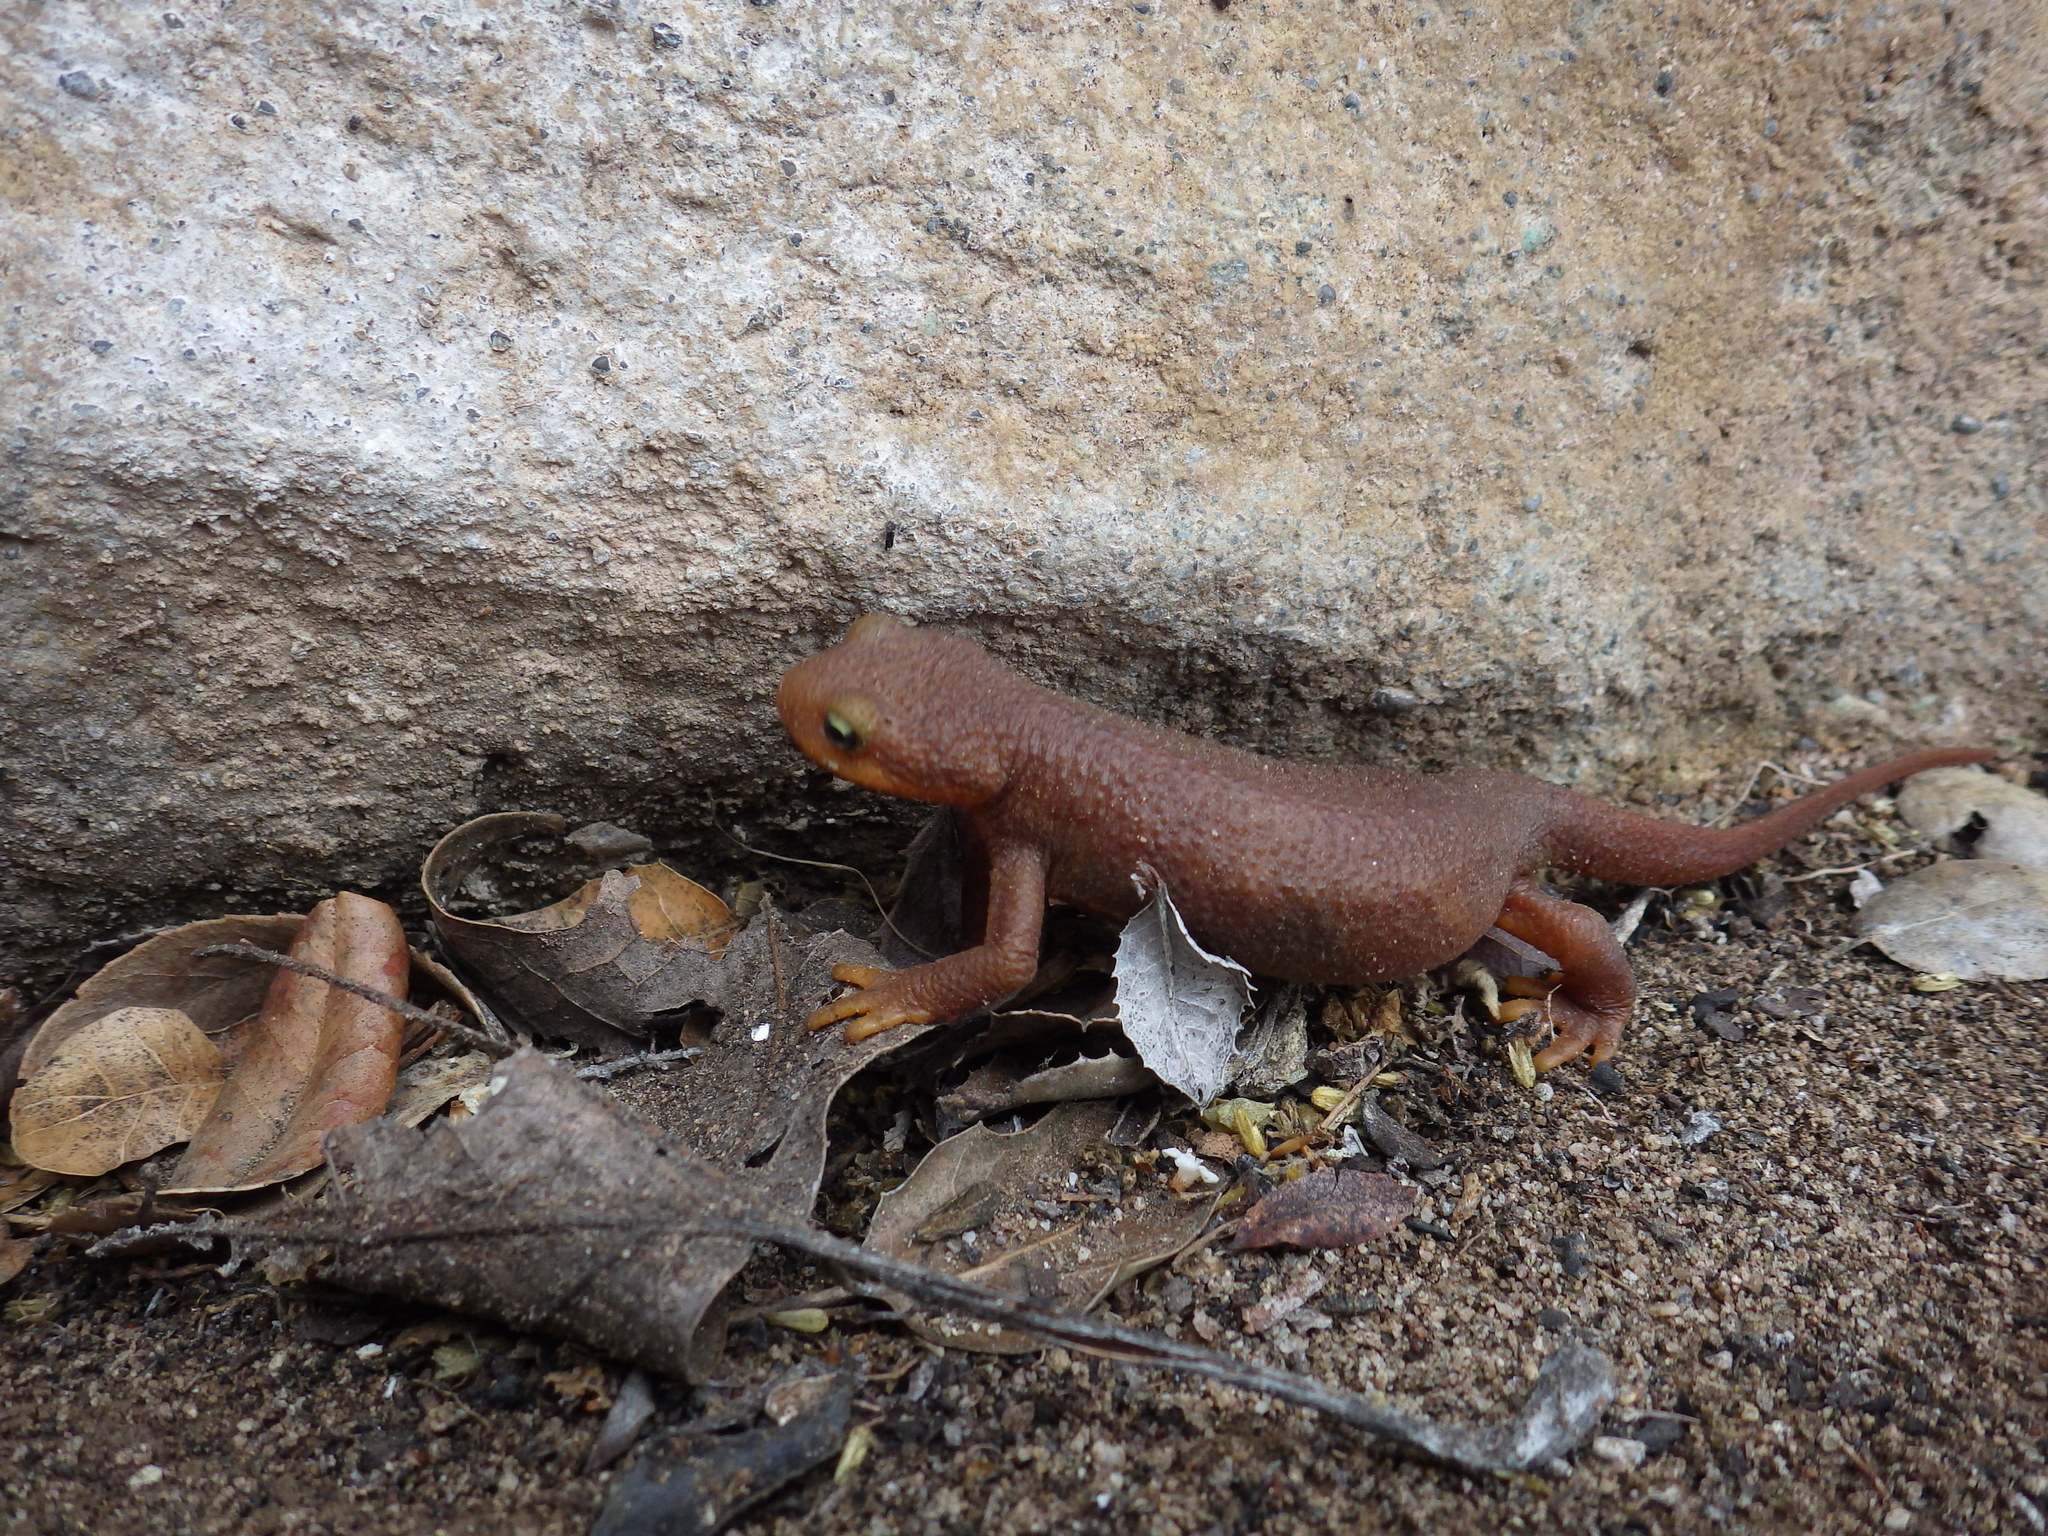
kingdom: Animalia
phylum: Chordata
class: Amphibia
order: Caudata
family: Salamandridae
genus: Taricha
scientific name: Taricha torosa
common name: California newt
